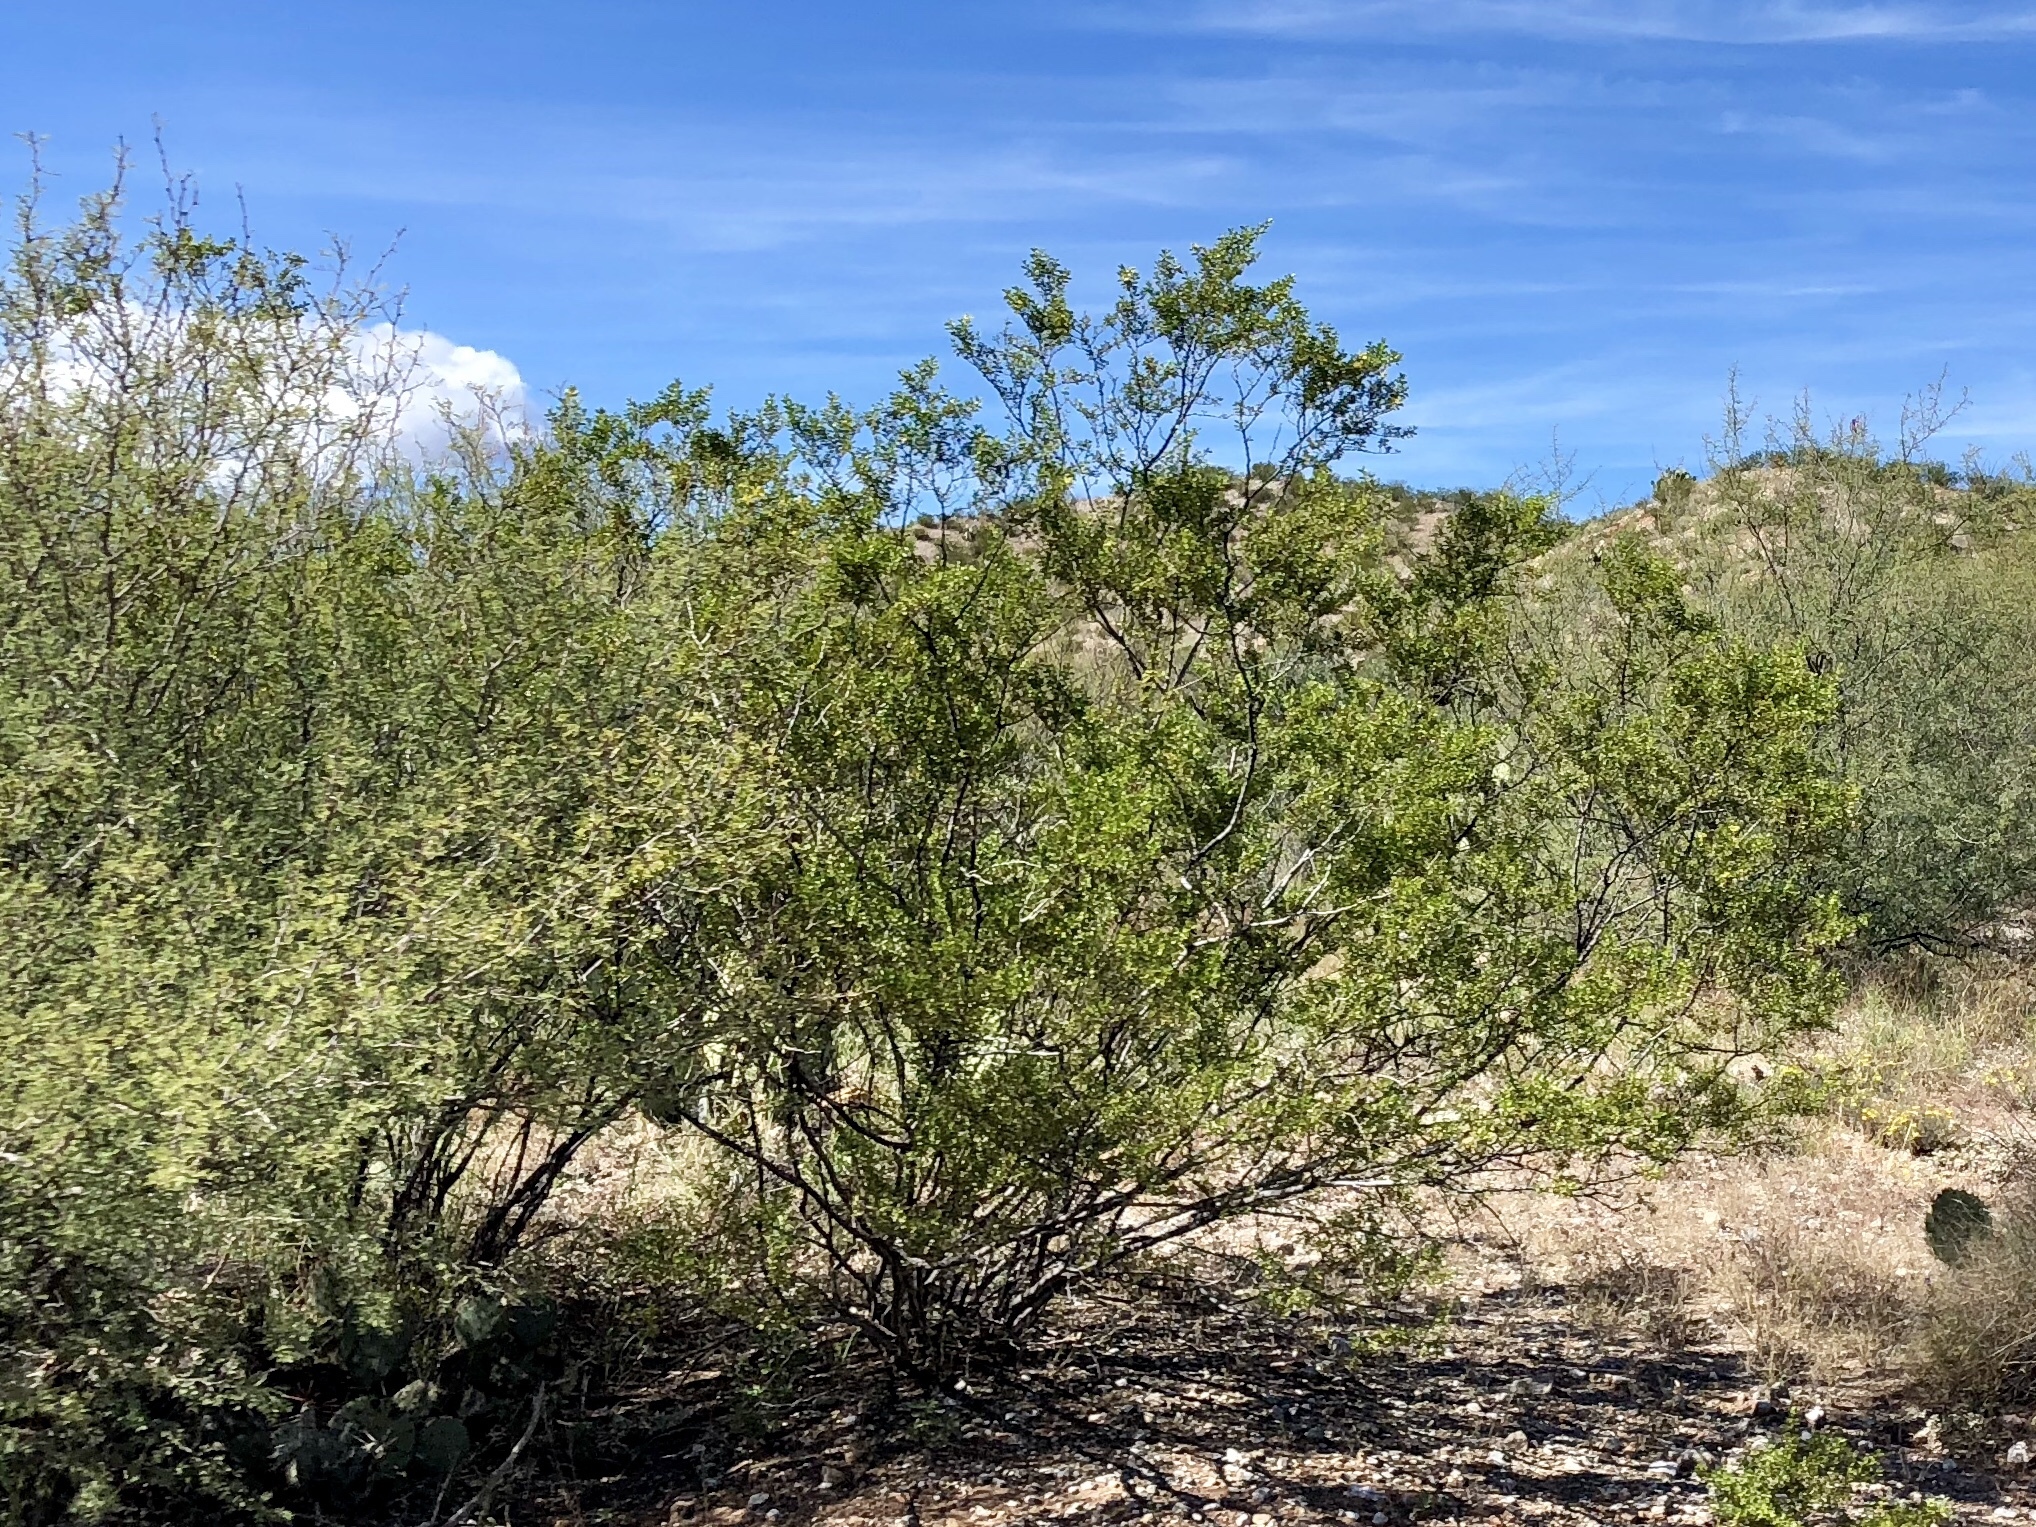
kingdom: Plantae
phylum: Tracheophyta
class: Magnoliopsida
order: Zygophyllales
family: Zygophyllaceae
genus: Larrea
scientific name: Larrea tridentata
